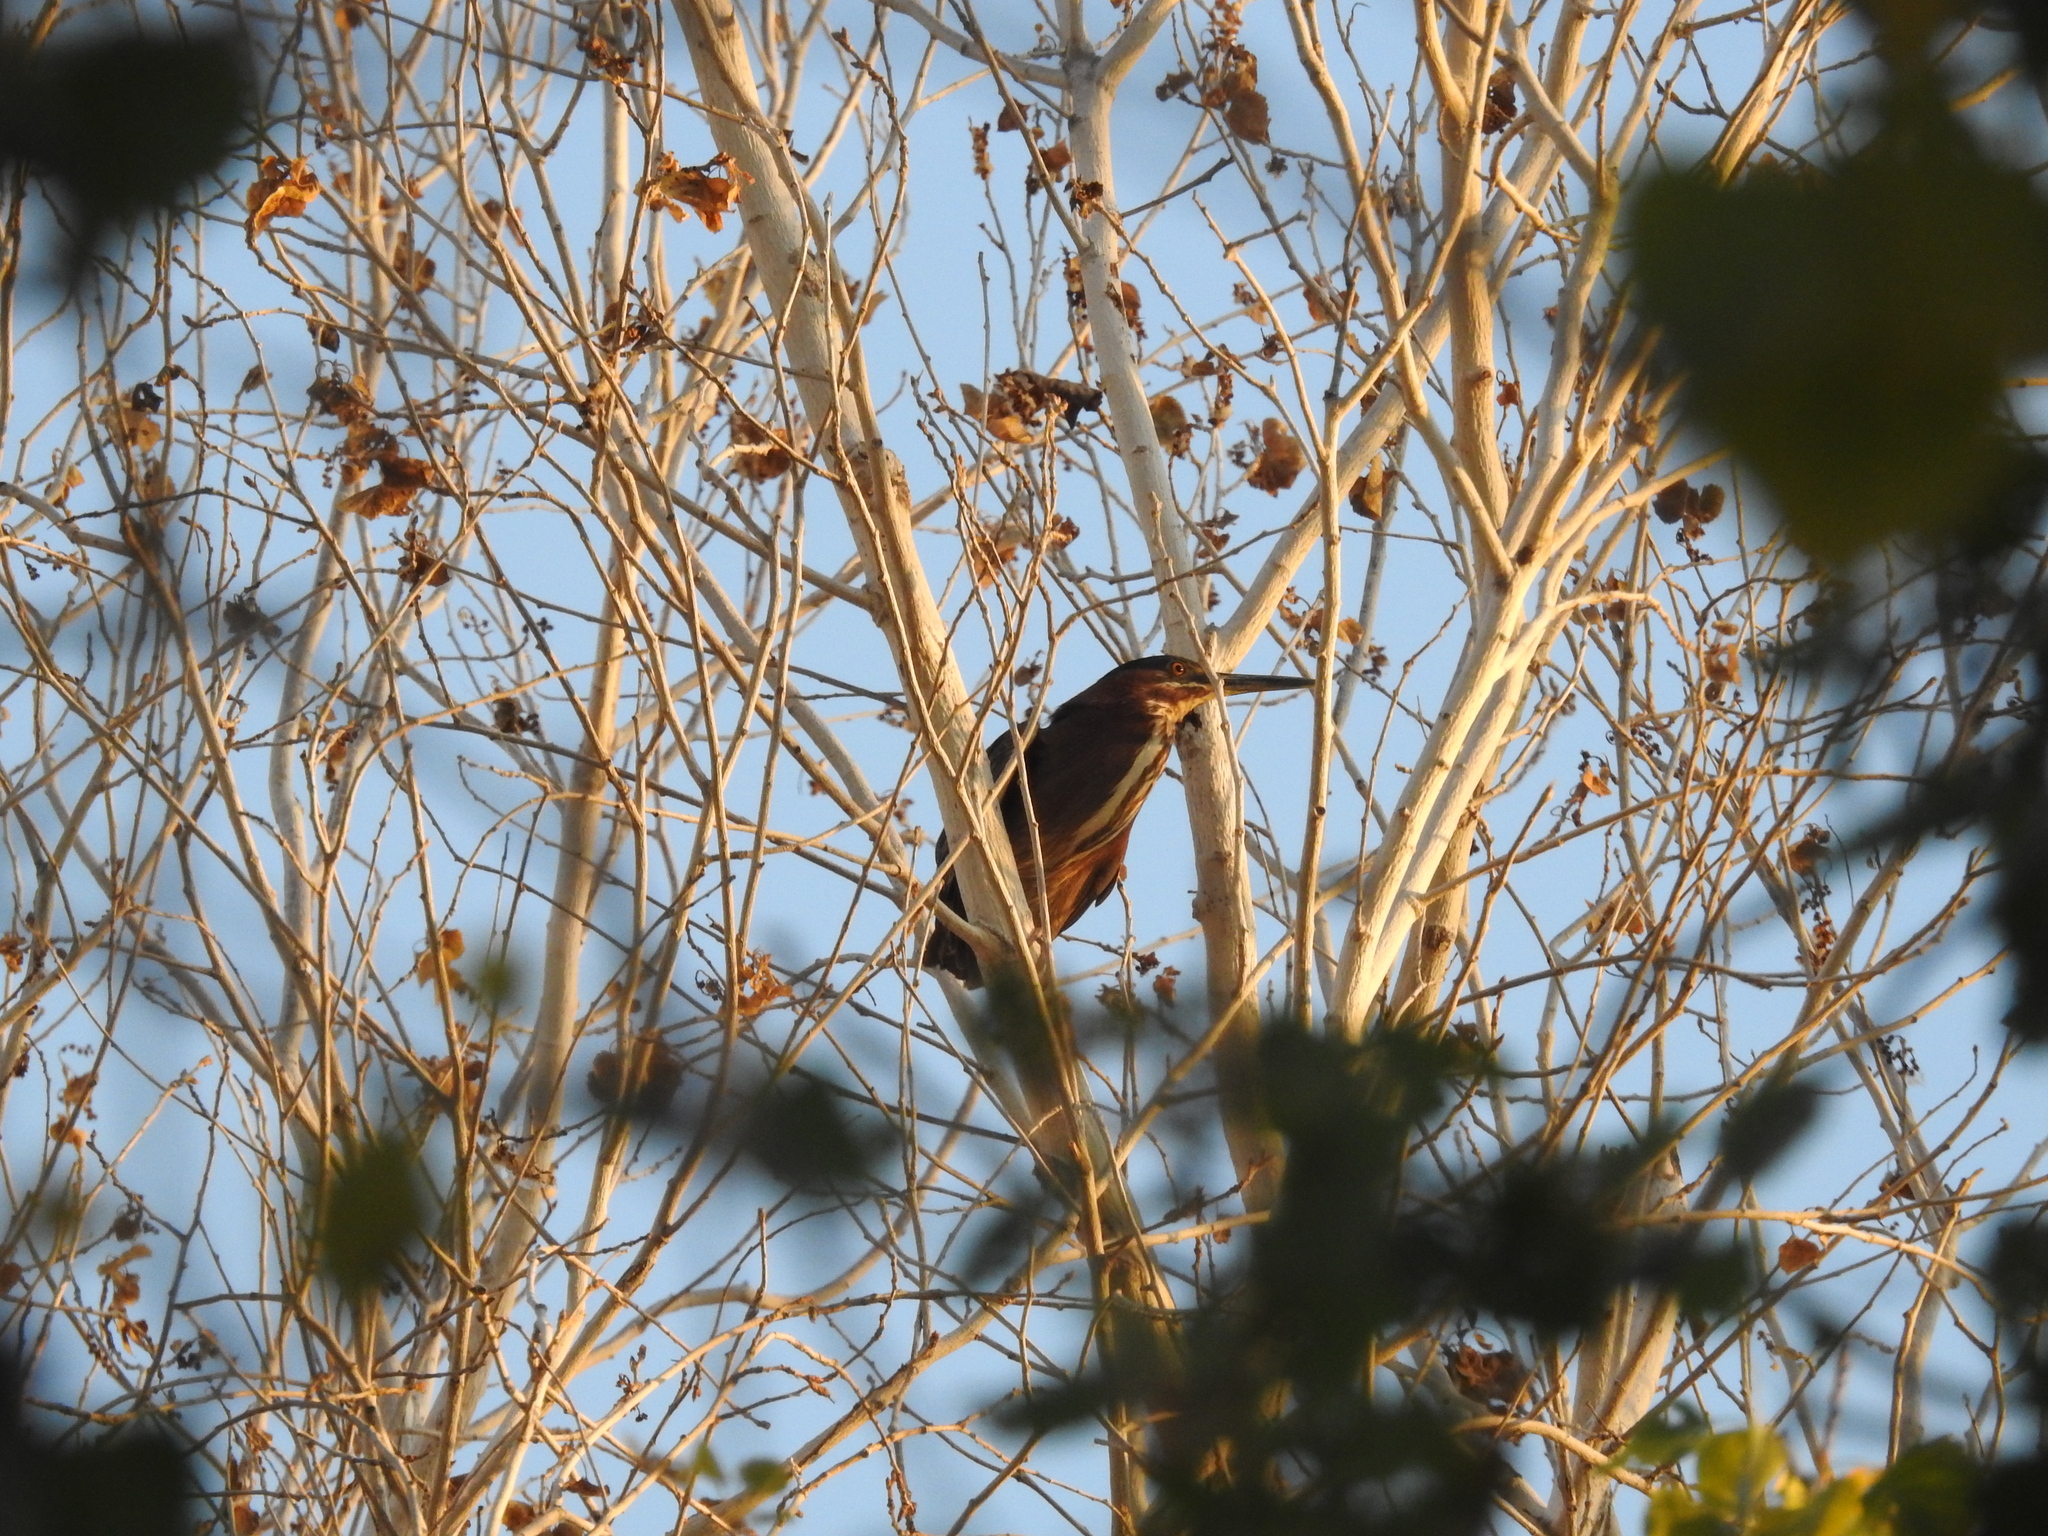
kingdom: Animalia
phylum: Chordata
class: Aves
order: Pelecaniformes
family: Ardeidae
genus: Butorides
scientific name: Butorides virescens
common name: Green heron
